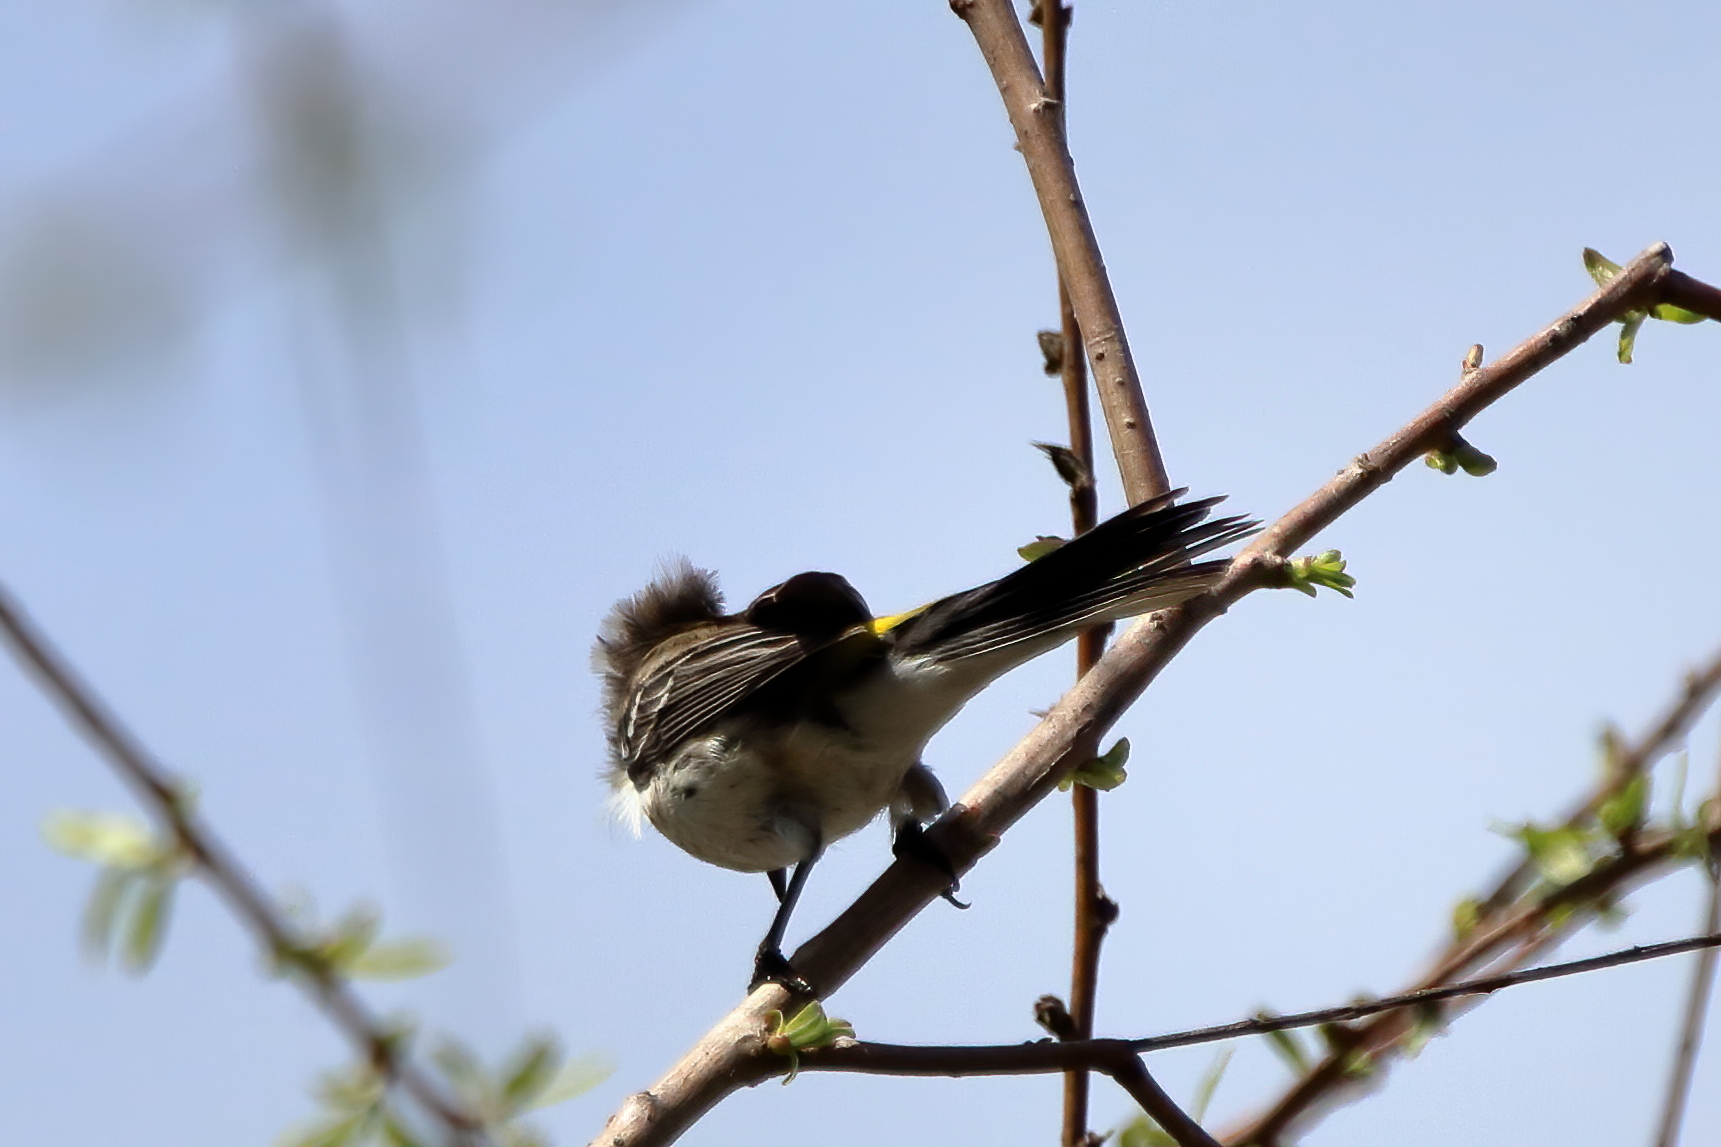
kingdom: Animalia
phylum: Chordata
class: Aves
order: Passeriformes
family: Parulidae
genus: Setophaga
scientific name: Setophaga coronata
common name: Myrtle warbler
